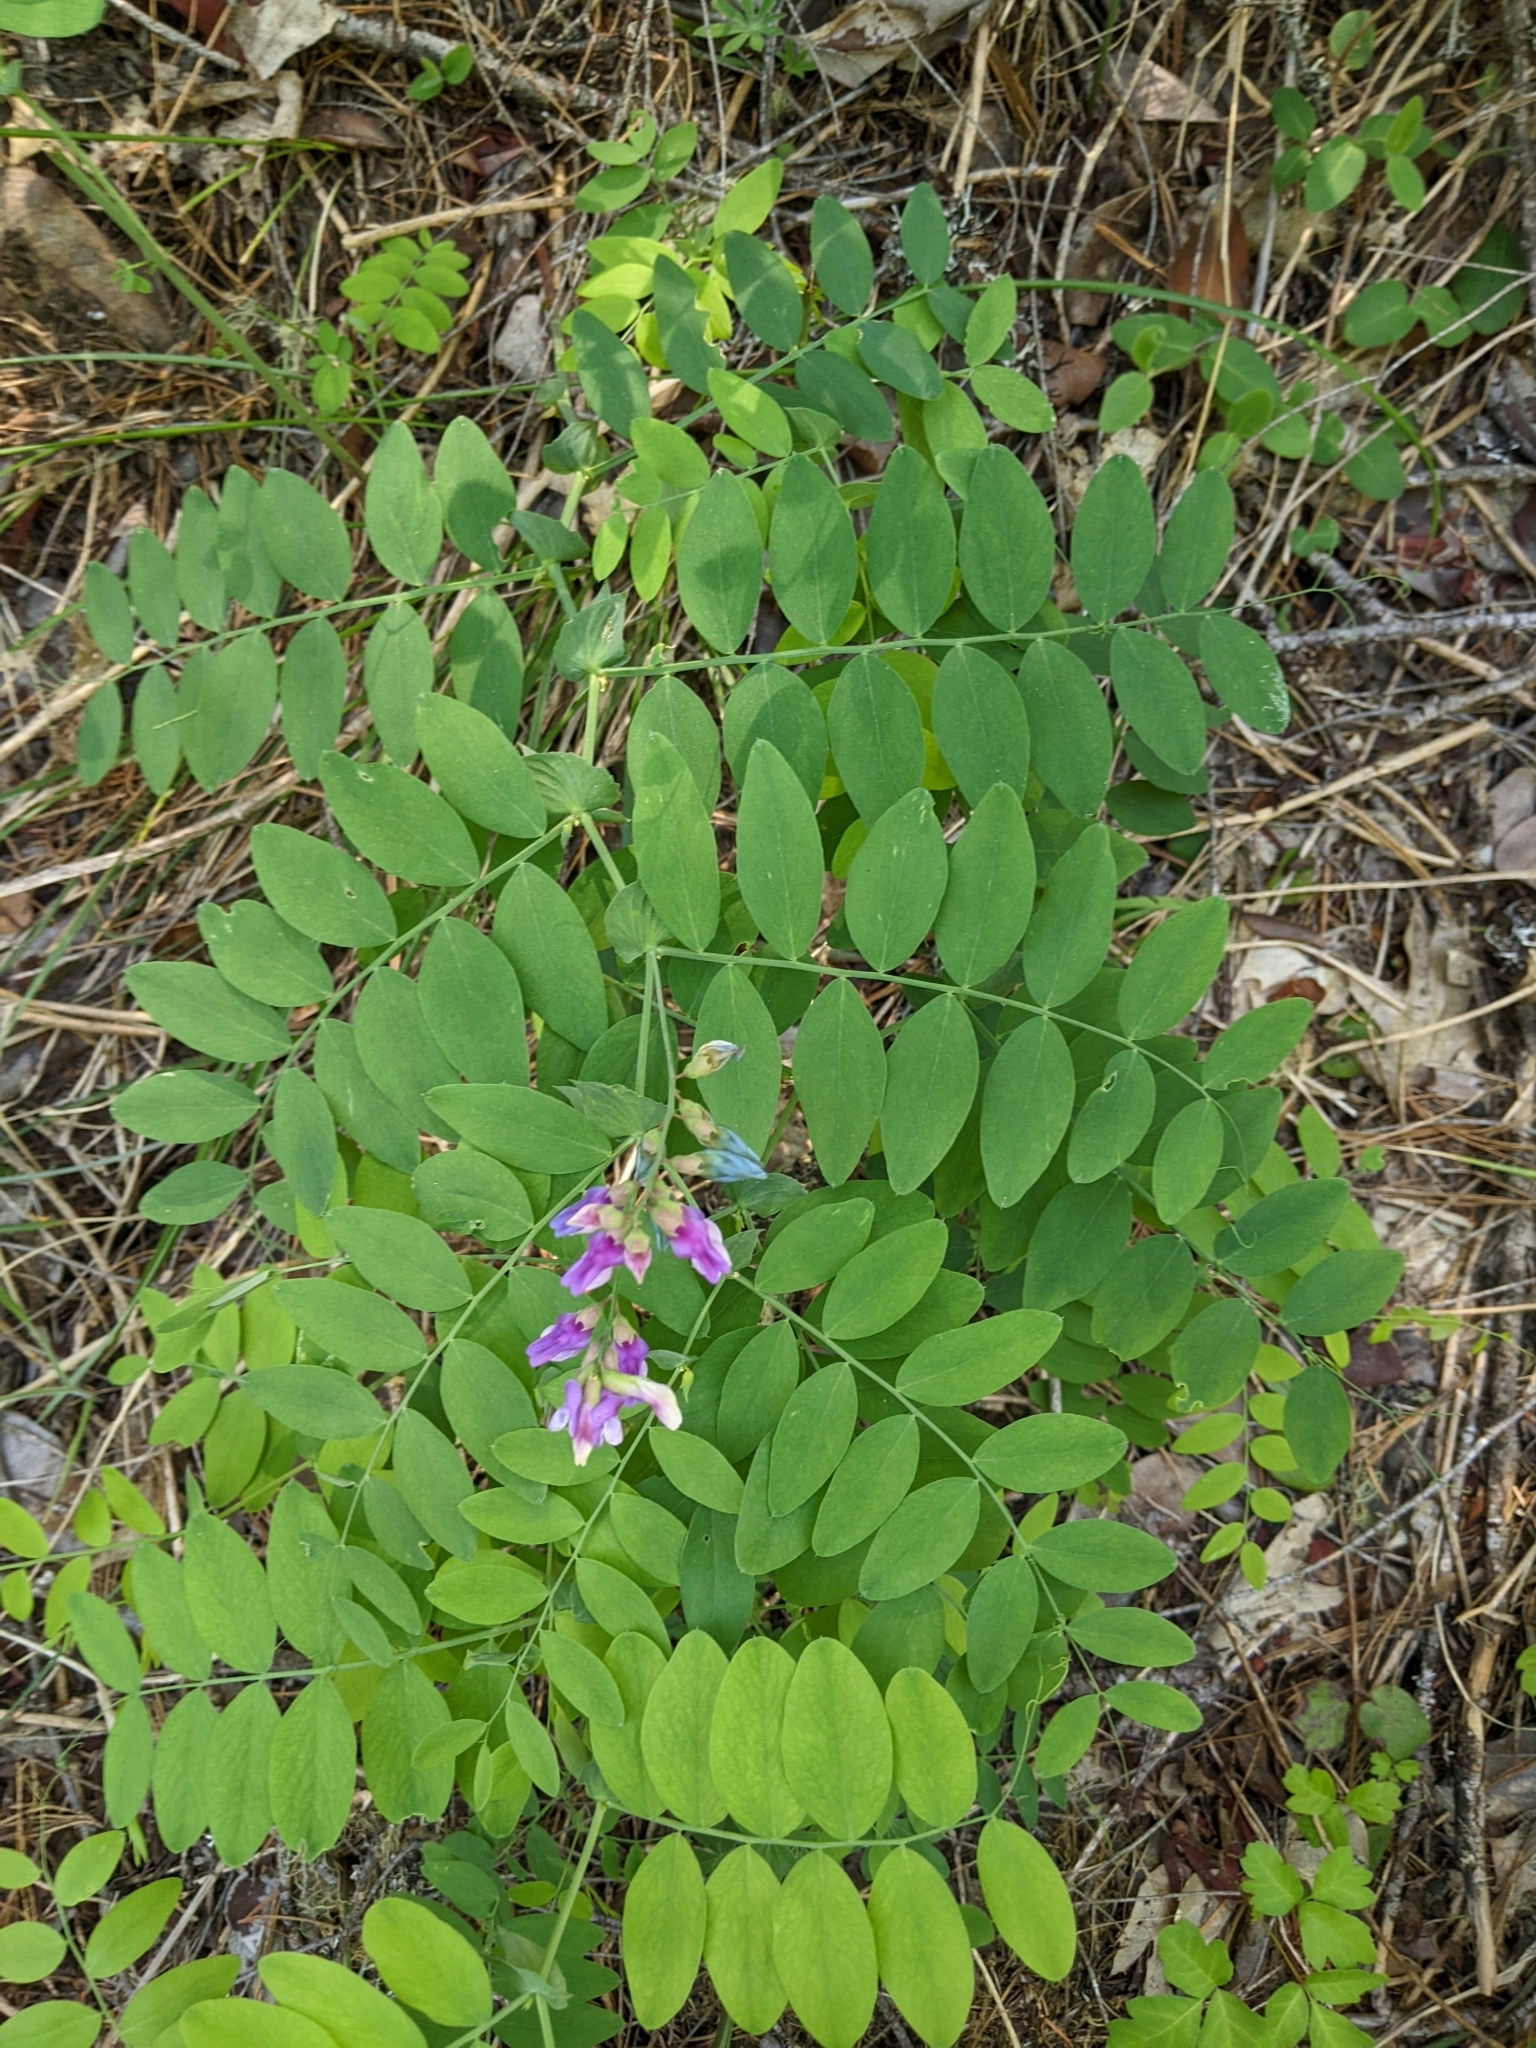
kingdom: Plantae
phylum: Tracheophyta
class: Magnoliopsida
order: Fabales
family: Fabaceae
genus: Lathyrus
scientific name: Lathyrus polyphyllus
